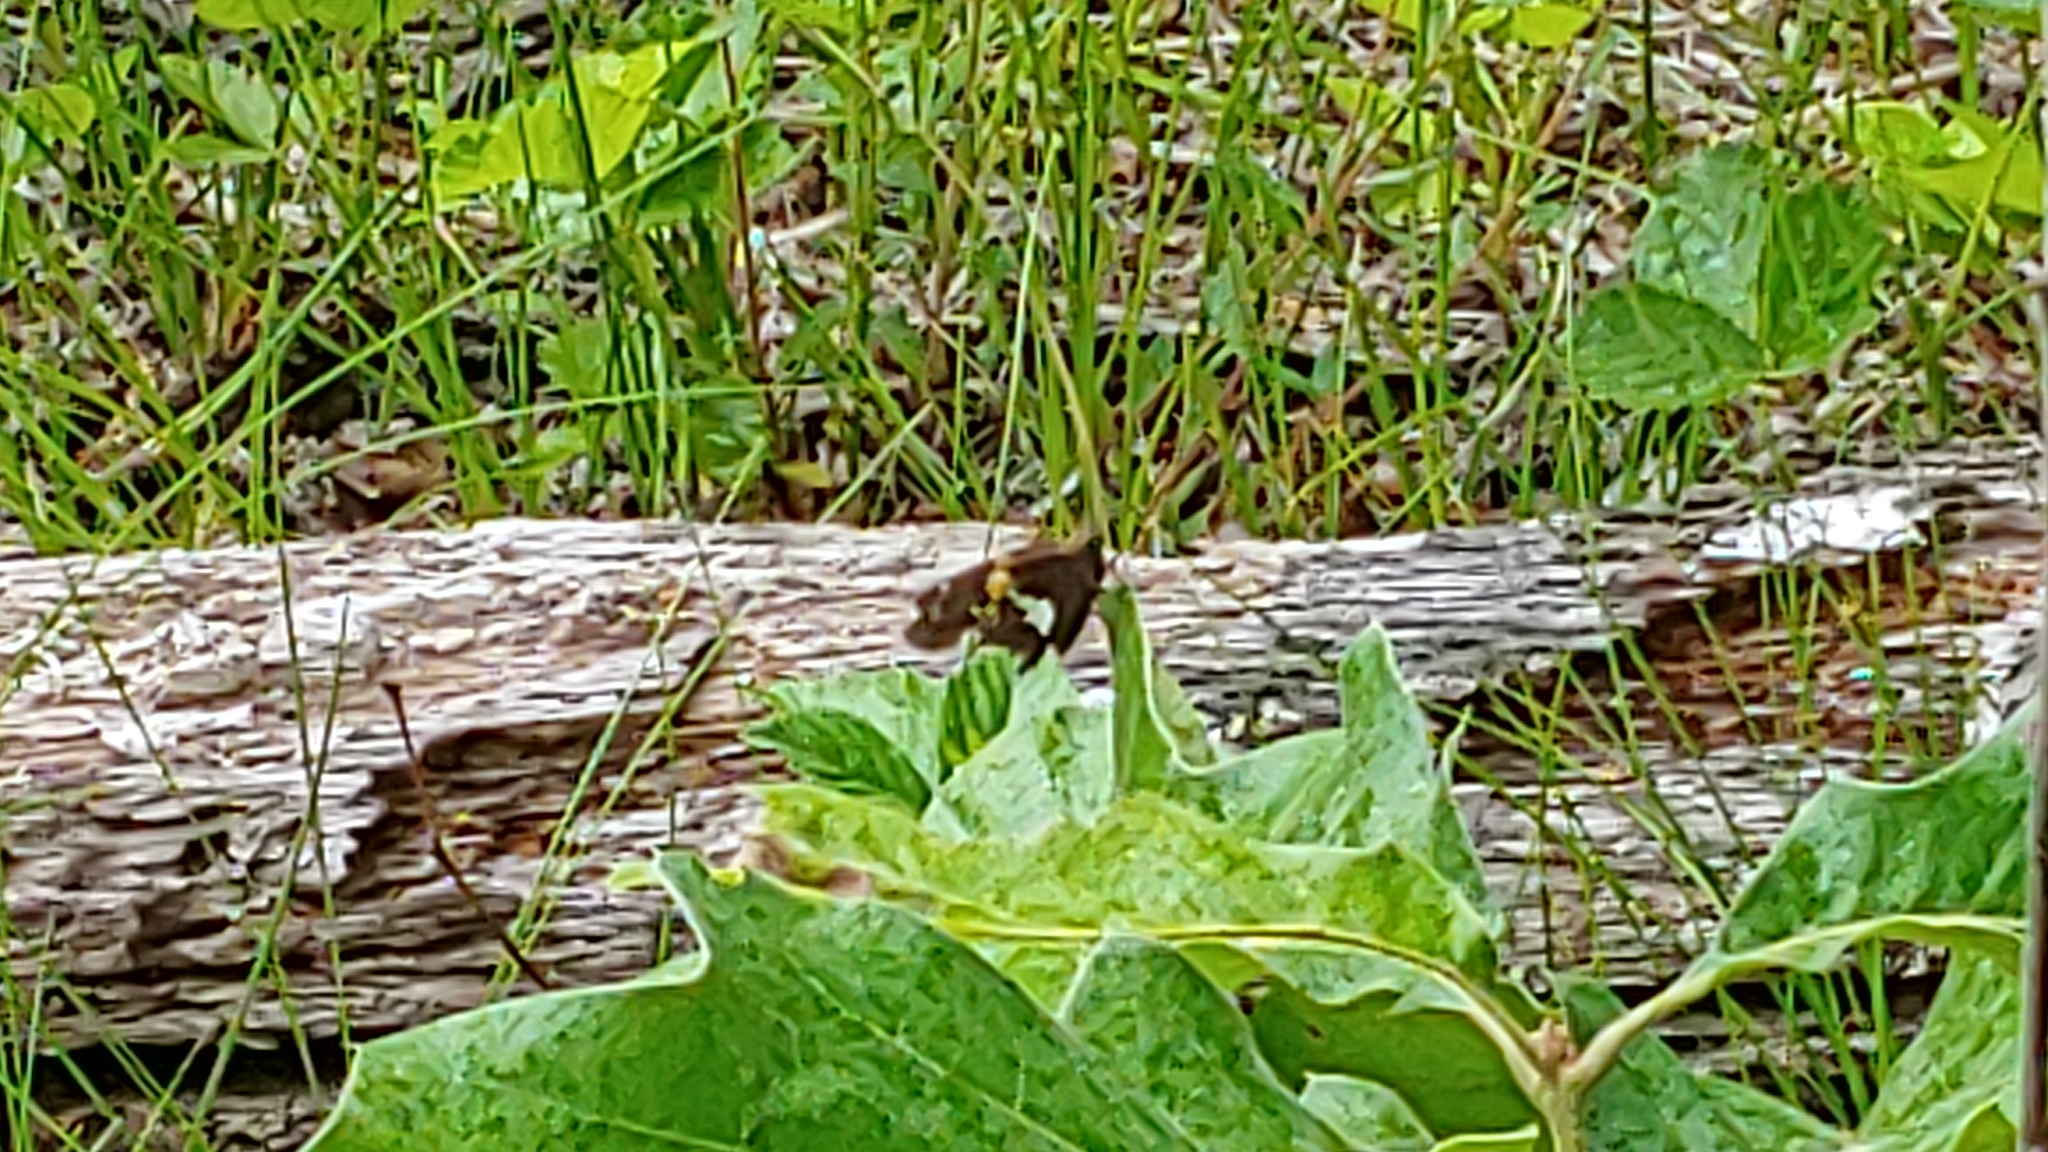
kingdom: Animalia
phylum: Arthropoda
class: Insecta
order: Lepidoptera
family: Hesperiidae
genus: Epargyreus
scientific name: Epargyreus clarus
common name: Silver-spotted skipper
